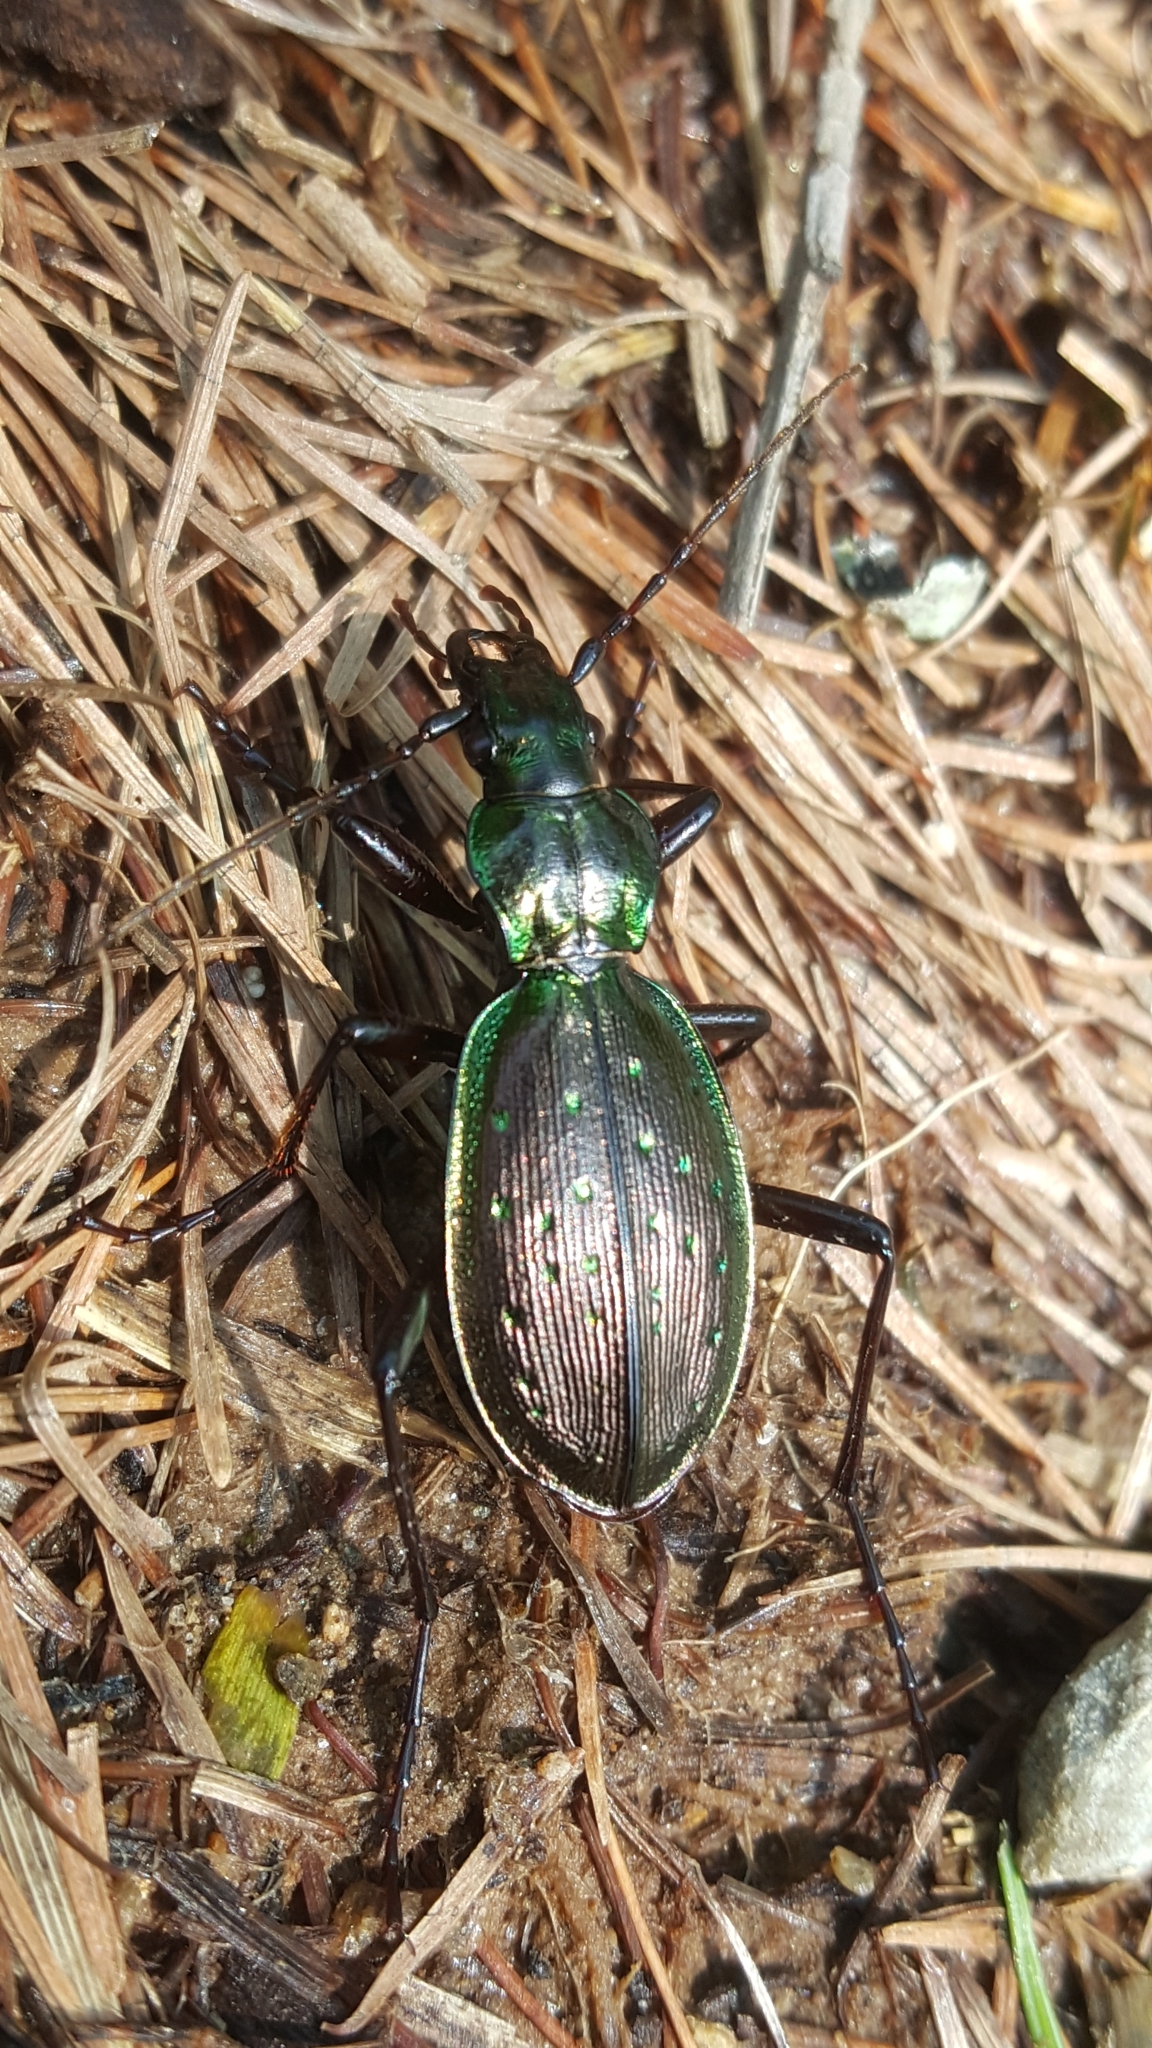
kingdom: Animalia
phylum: Arthropoda
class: Insecta
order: Coleoptera
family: Carabidae
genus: Carabus
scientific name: Carabus depressus
